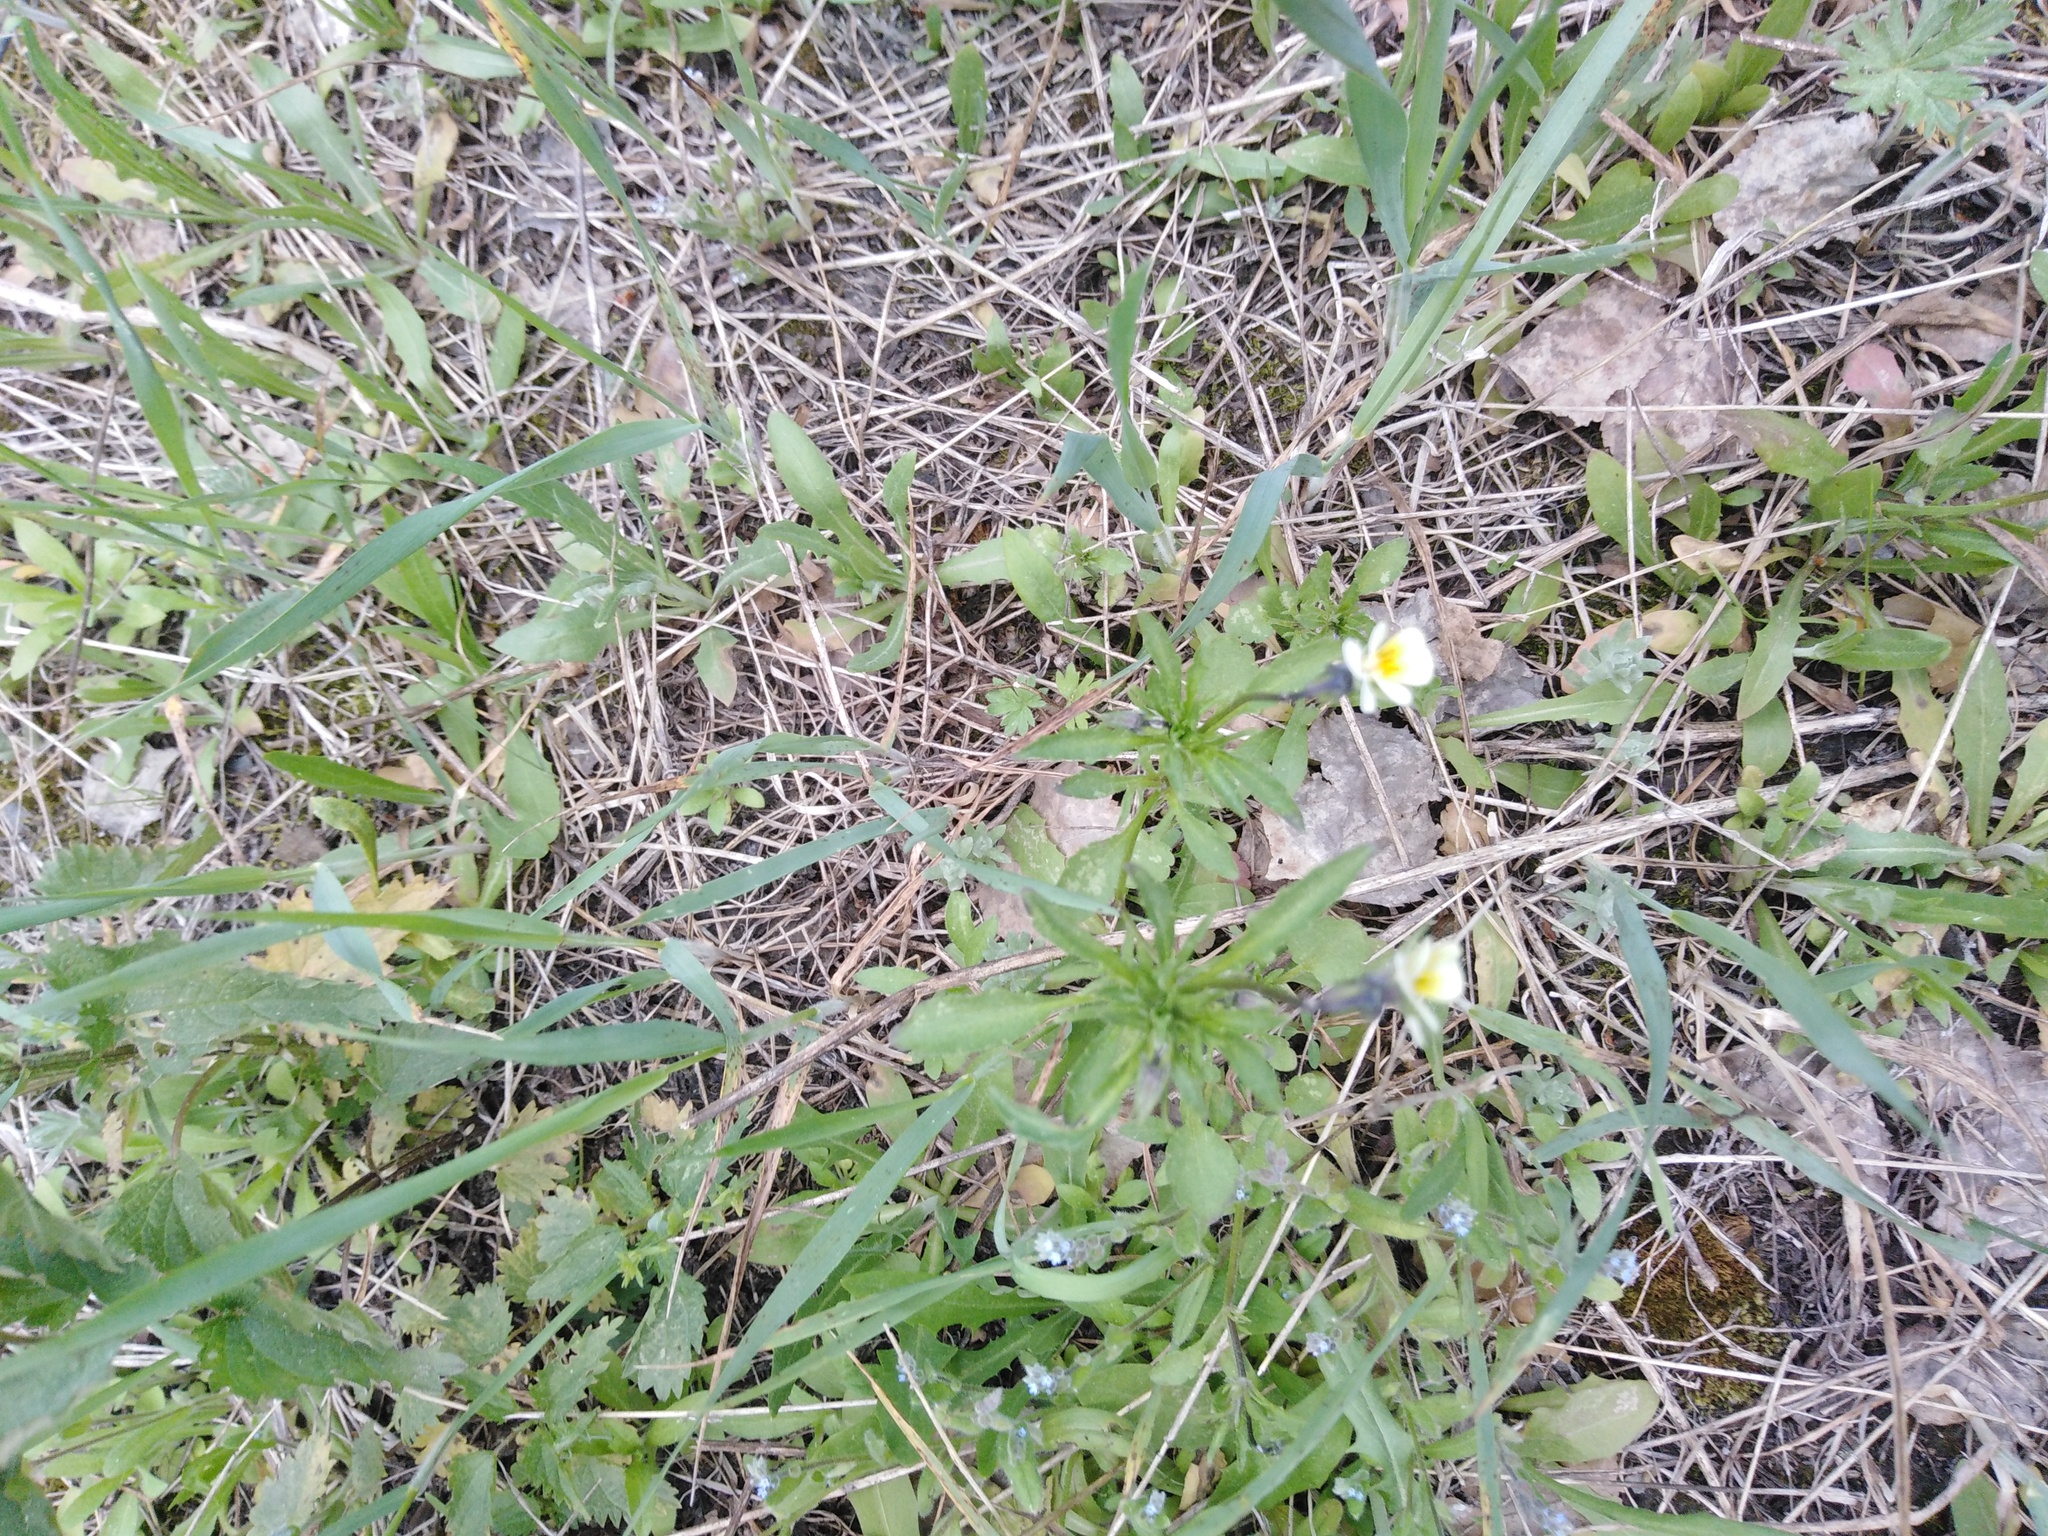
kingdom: Plantae
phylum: Tracheophyta
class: Magnoliopsida
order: Malpighiales
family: Violaceae
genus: Viola
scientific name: Viola arvensis
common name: Field pansy
